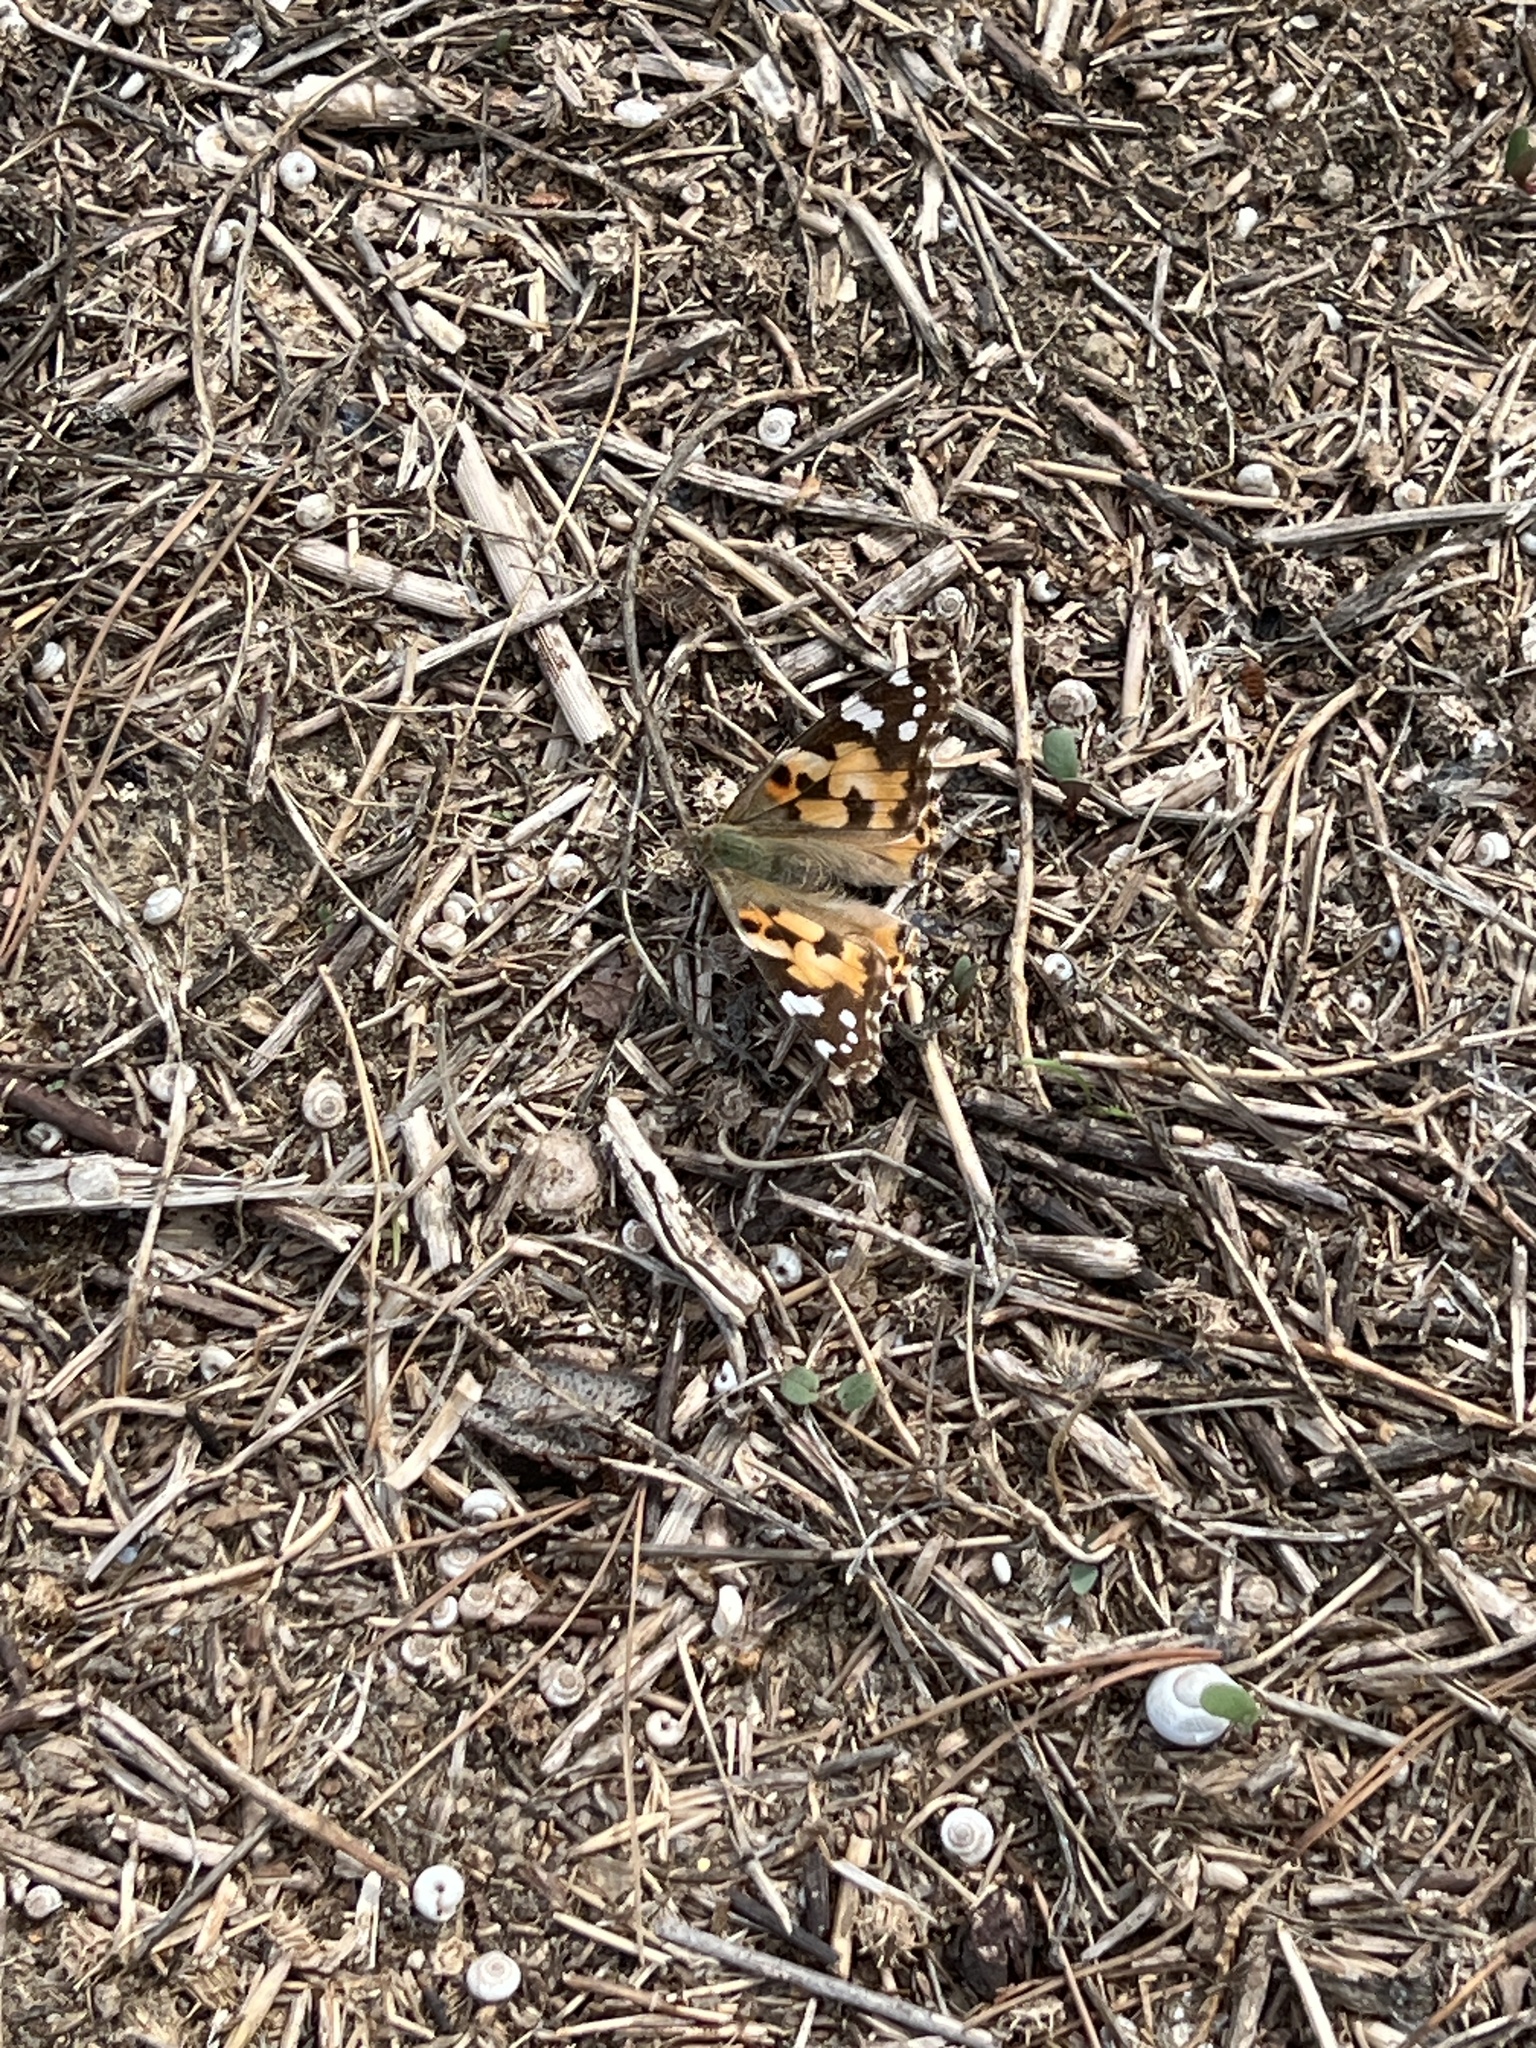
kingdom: Animalia
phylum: Arthropoda
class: Insecta
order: Lepidoptera
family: Nymphalidae
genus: Vanessa
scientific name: Vanessa cardui
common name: Painted lady
